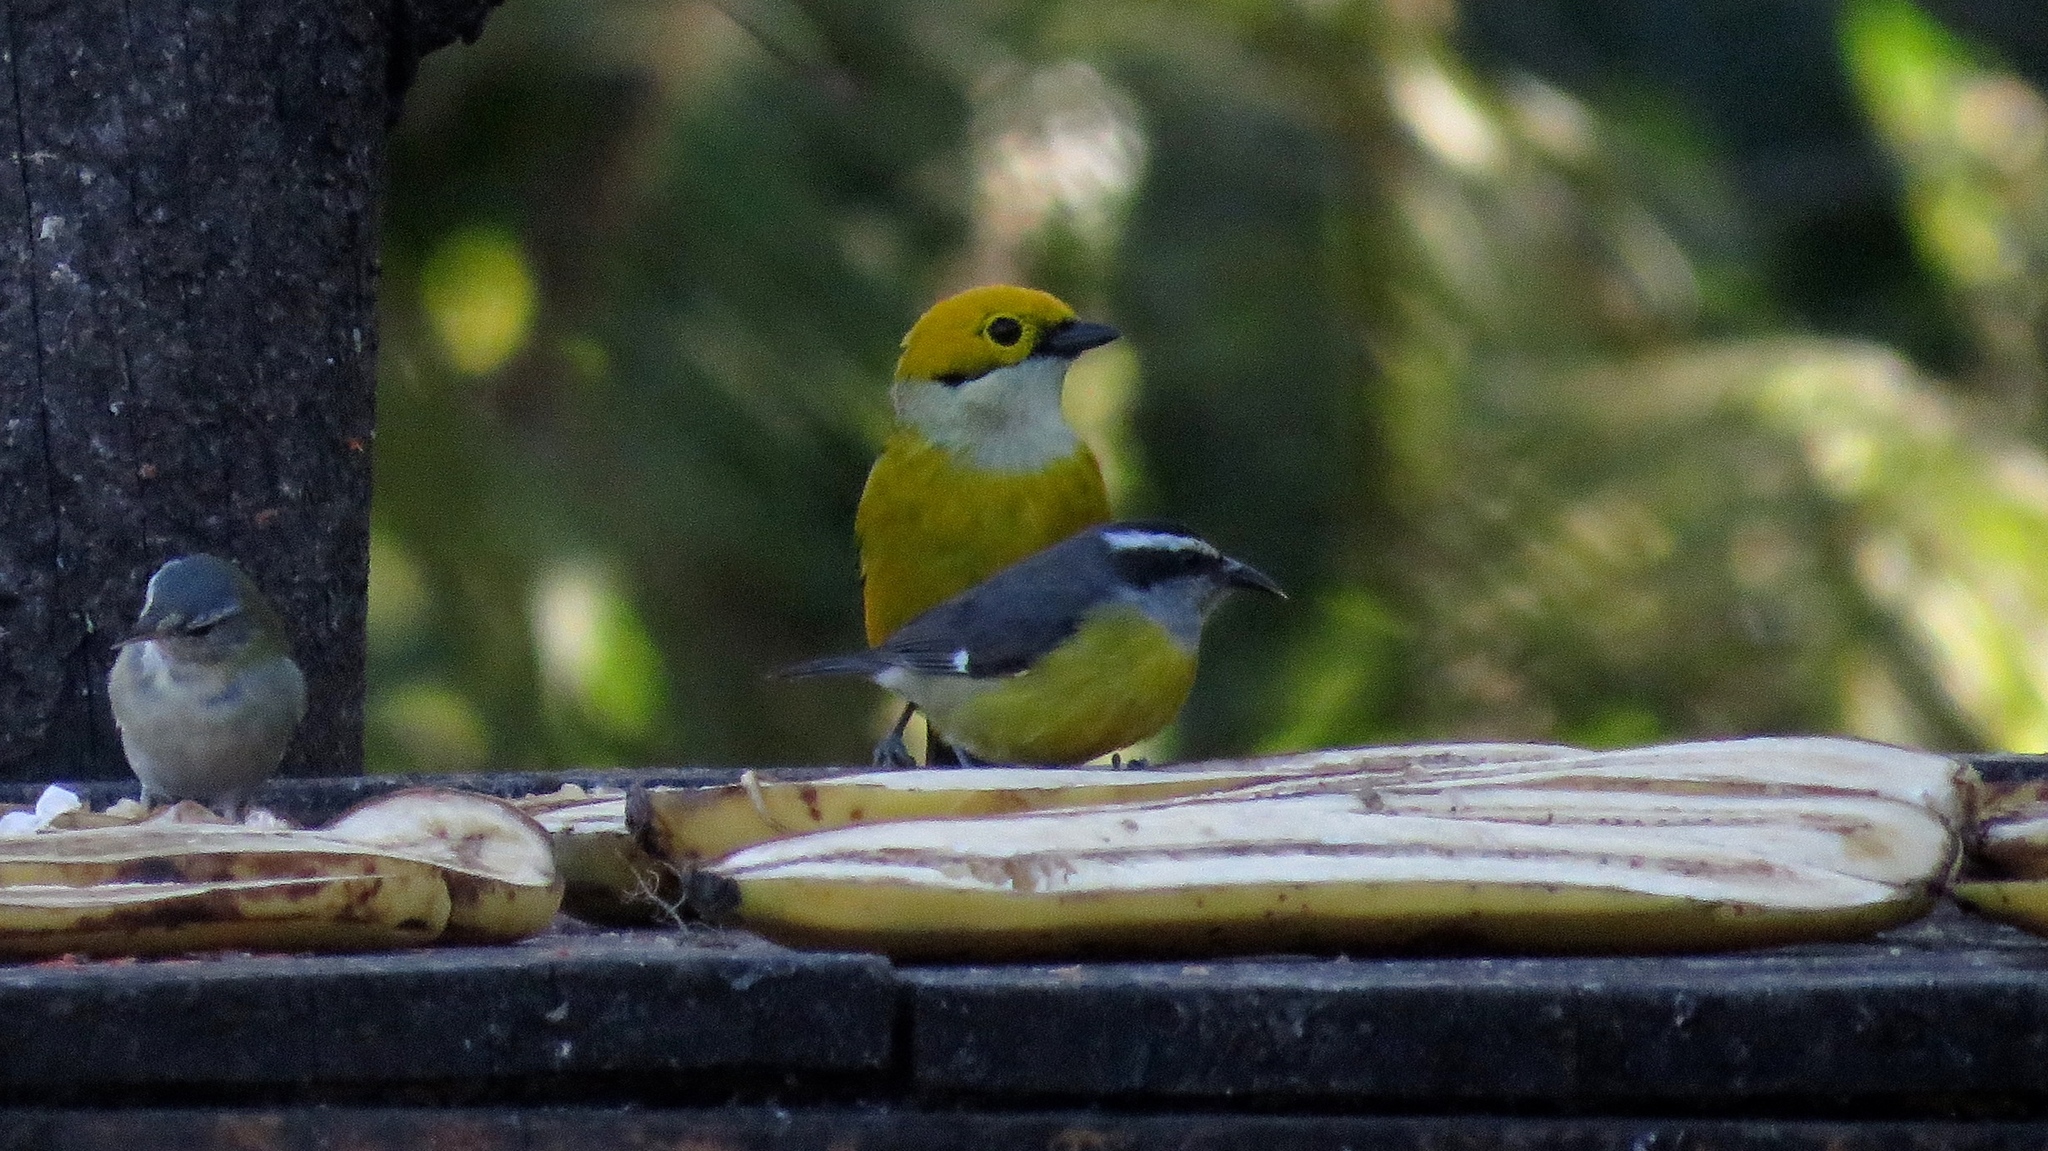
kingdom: Animalia
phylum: Chordata
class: Aves
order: Passeriformes
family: Thraupidae
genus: Coereba
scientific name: Coereba flaveola
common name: Bananaquit
